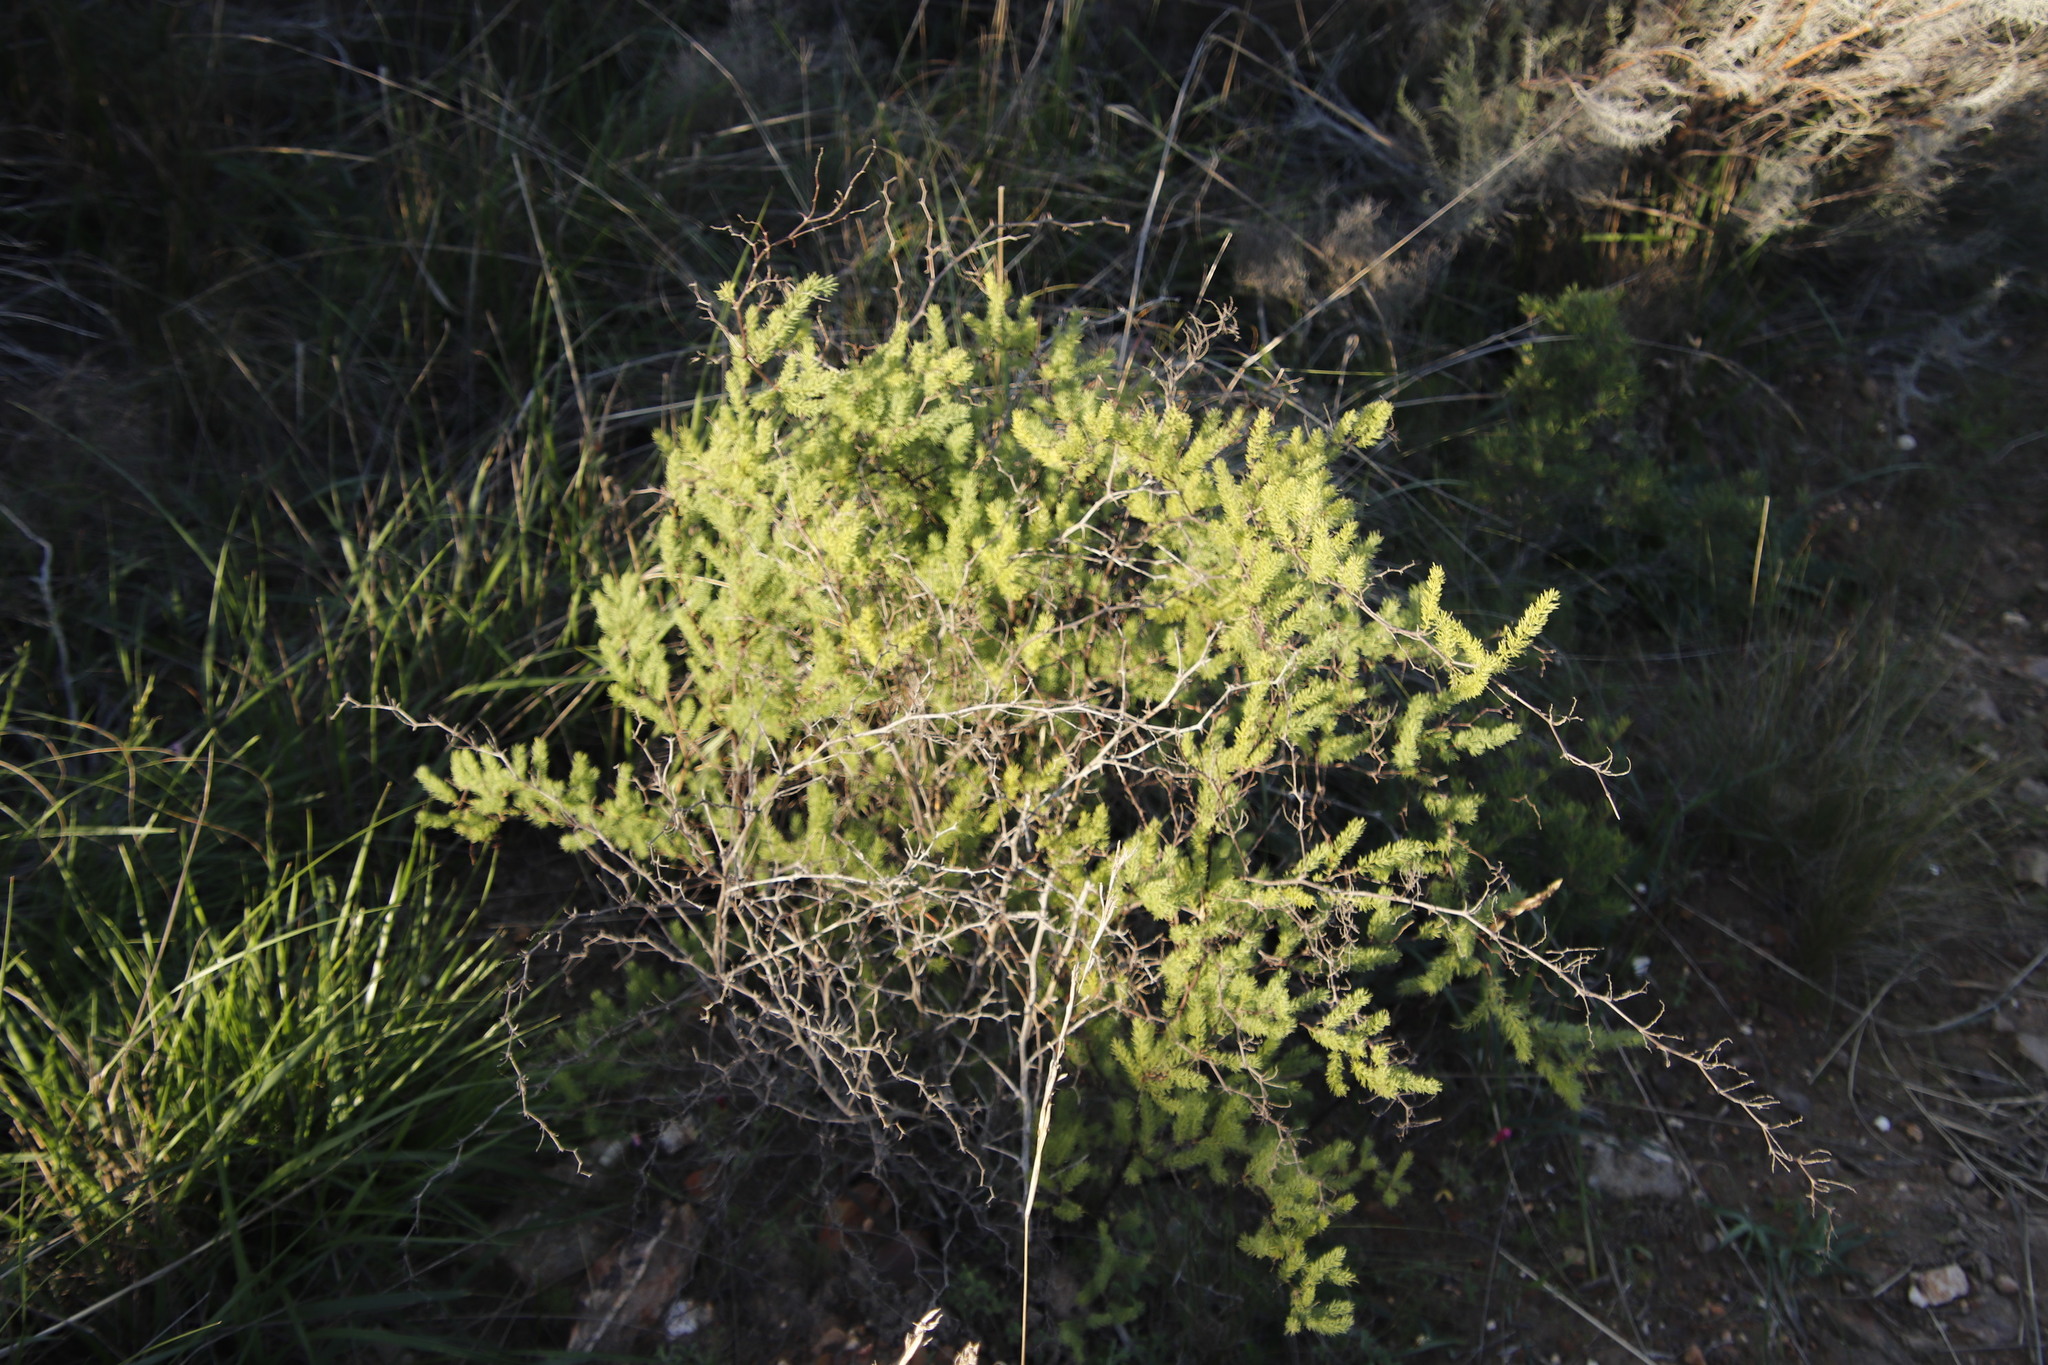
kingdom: Plantae
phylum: Tracheophyta
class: Liliopsida
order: Asparagales
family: Asparagaceae
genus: Asparagus
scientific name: Asparagus rubicundus
